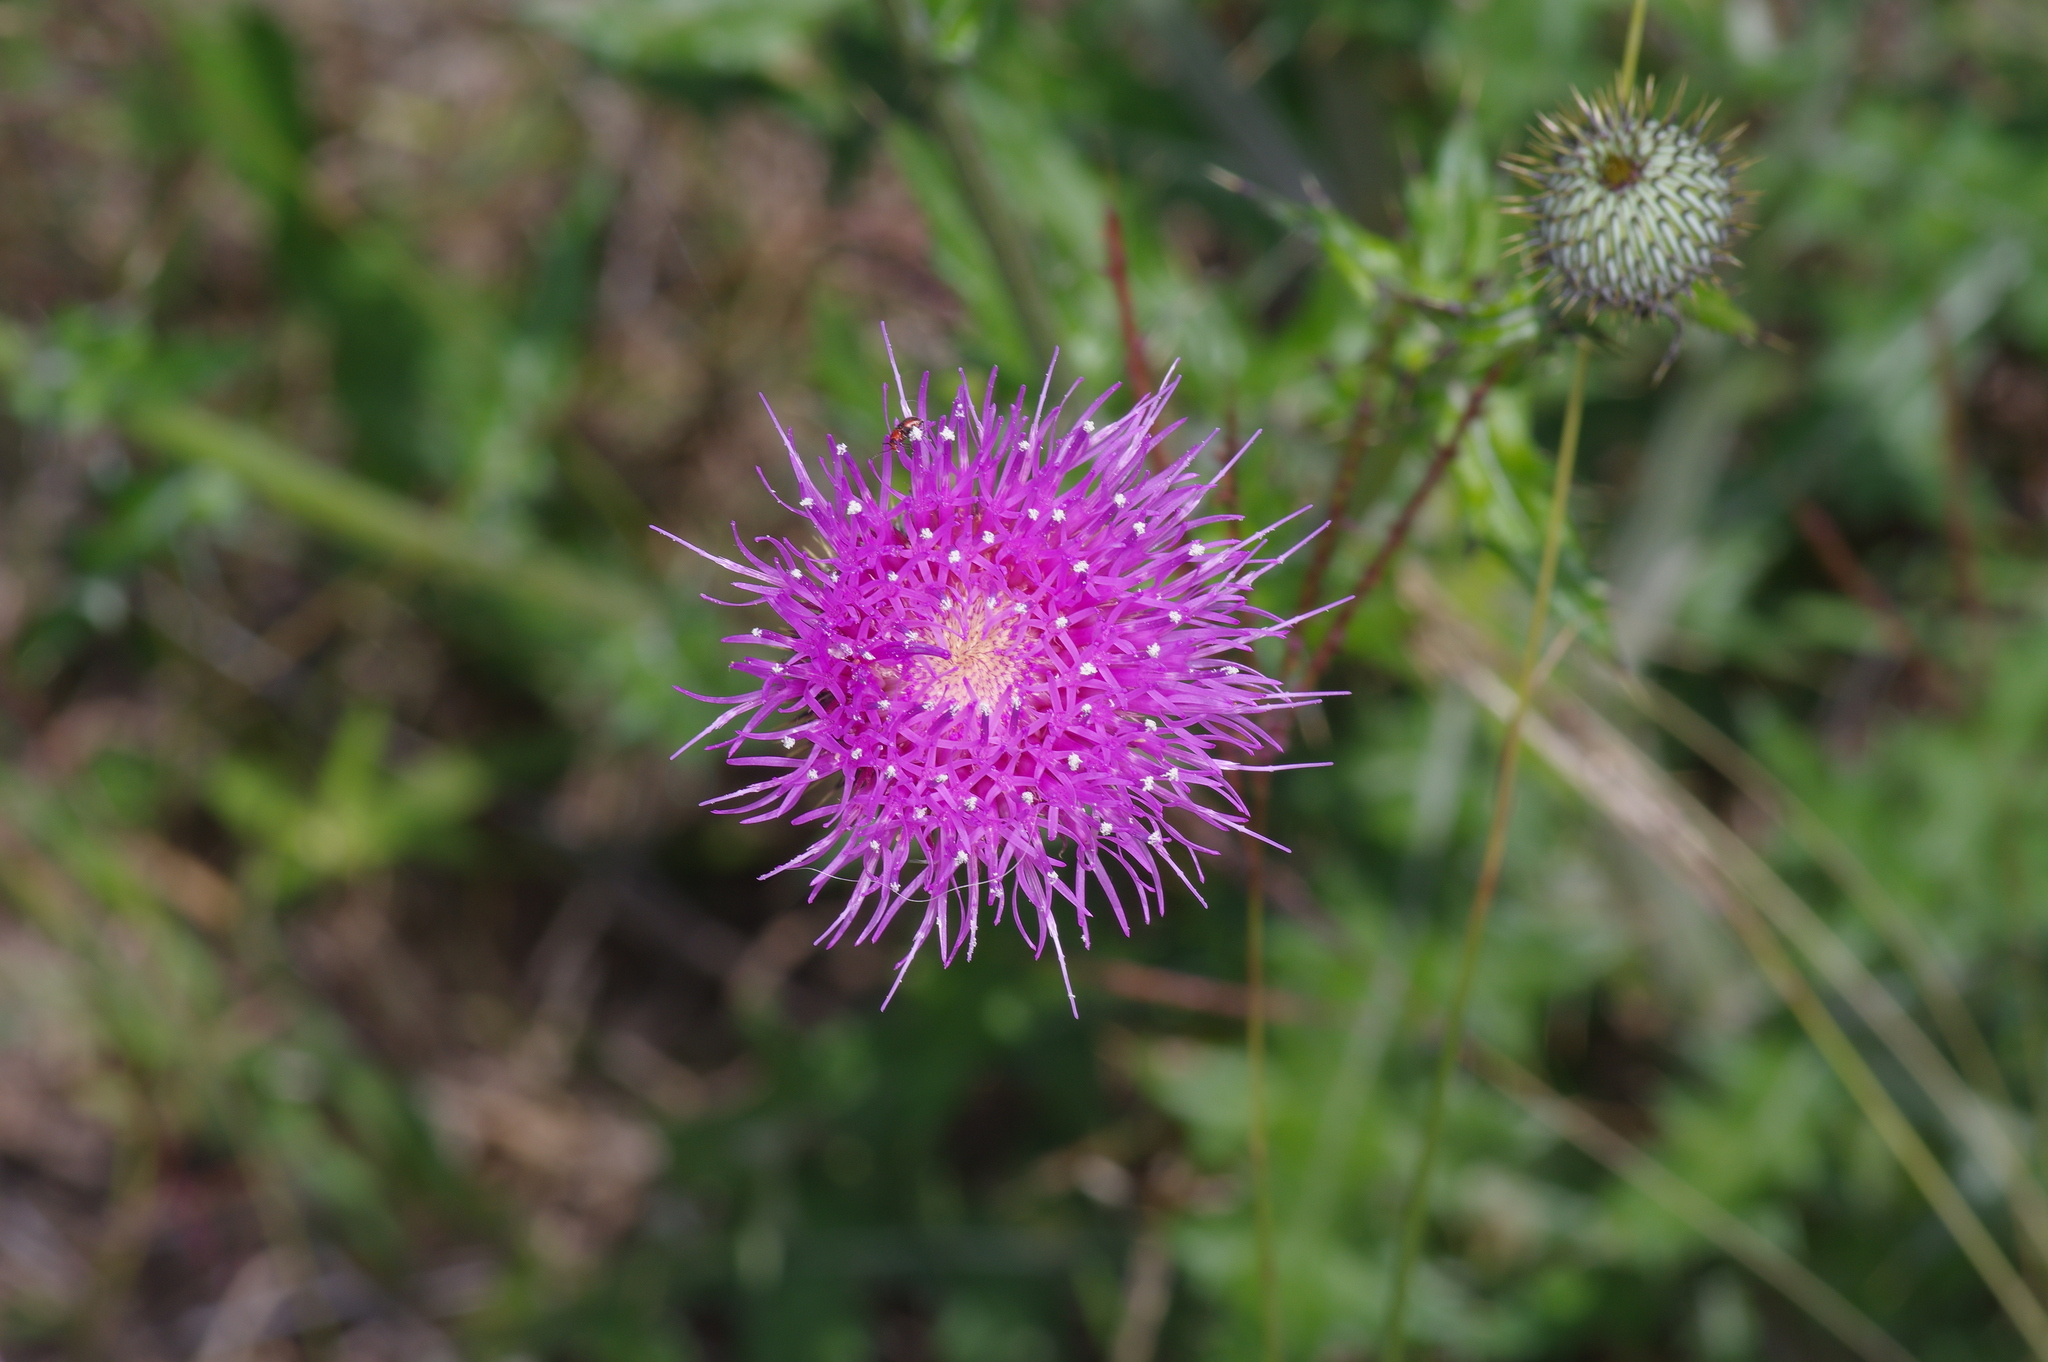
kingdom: Plantae
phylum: Tracheophyta
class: Magnoliopsida
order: Asterales
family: Asteraceae
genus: Cirsium
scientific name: Cirsium texanum
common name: Texas purple thistle
